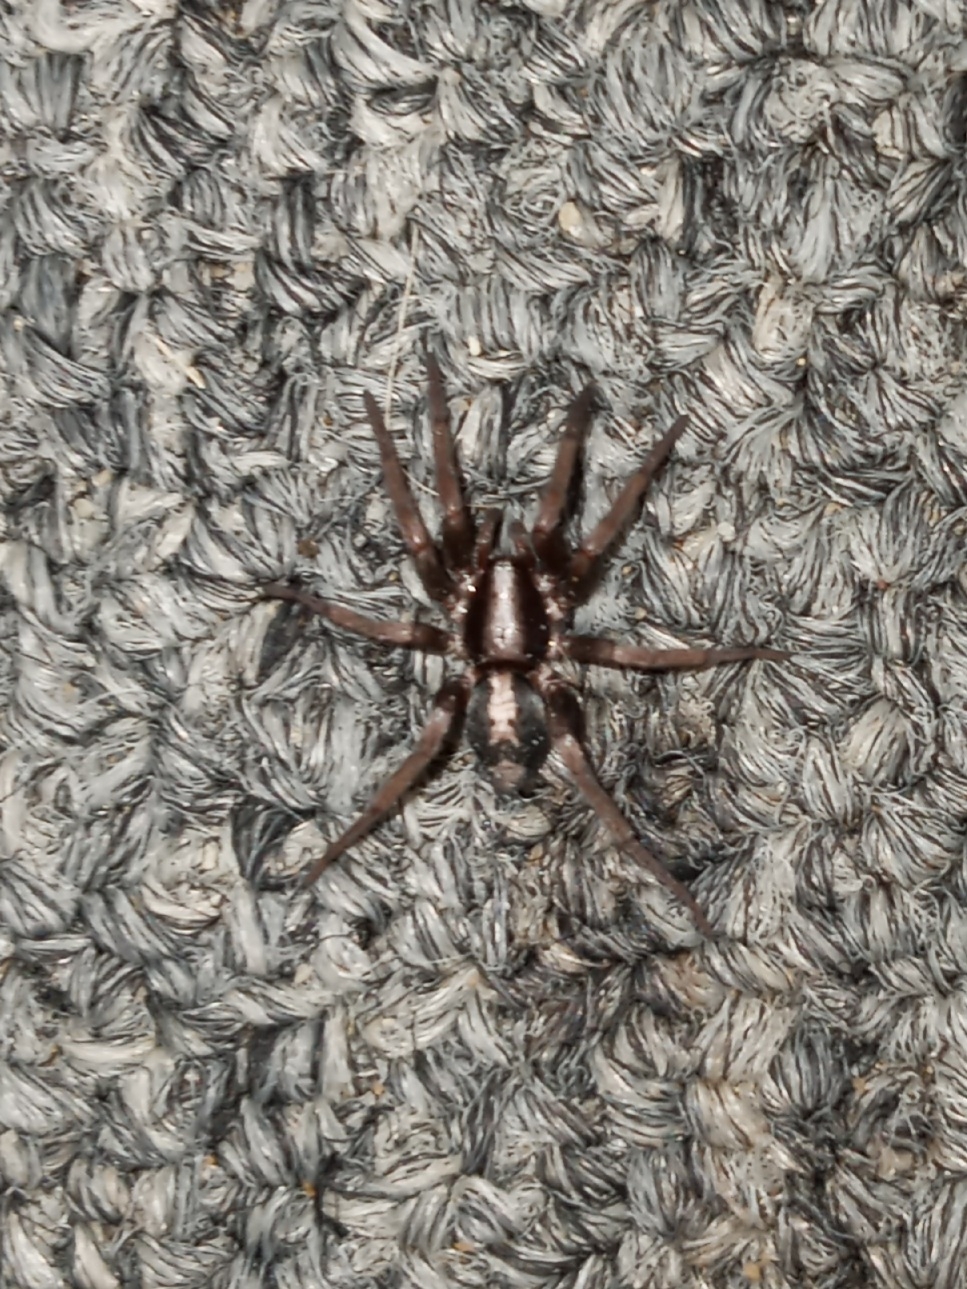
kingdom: Animalia
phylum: Arthropoda
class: Arachnida
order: Araneae
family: Gnaphosidae
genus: Herpyllus
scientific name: Herpyllus ecclesiasticus
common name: Eastern parson spider
